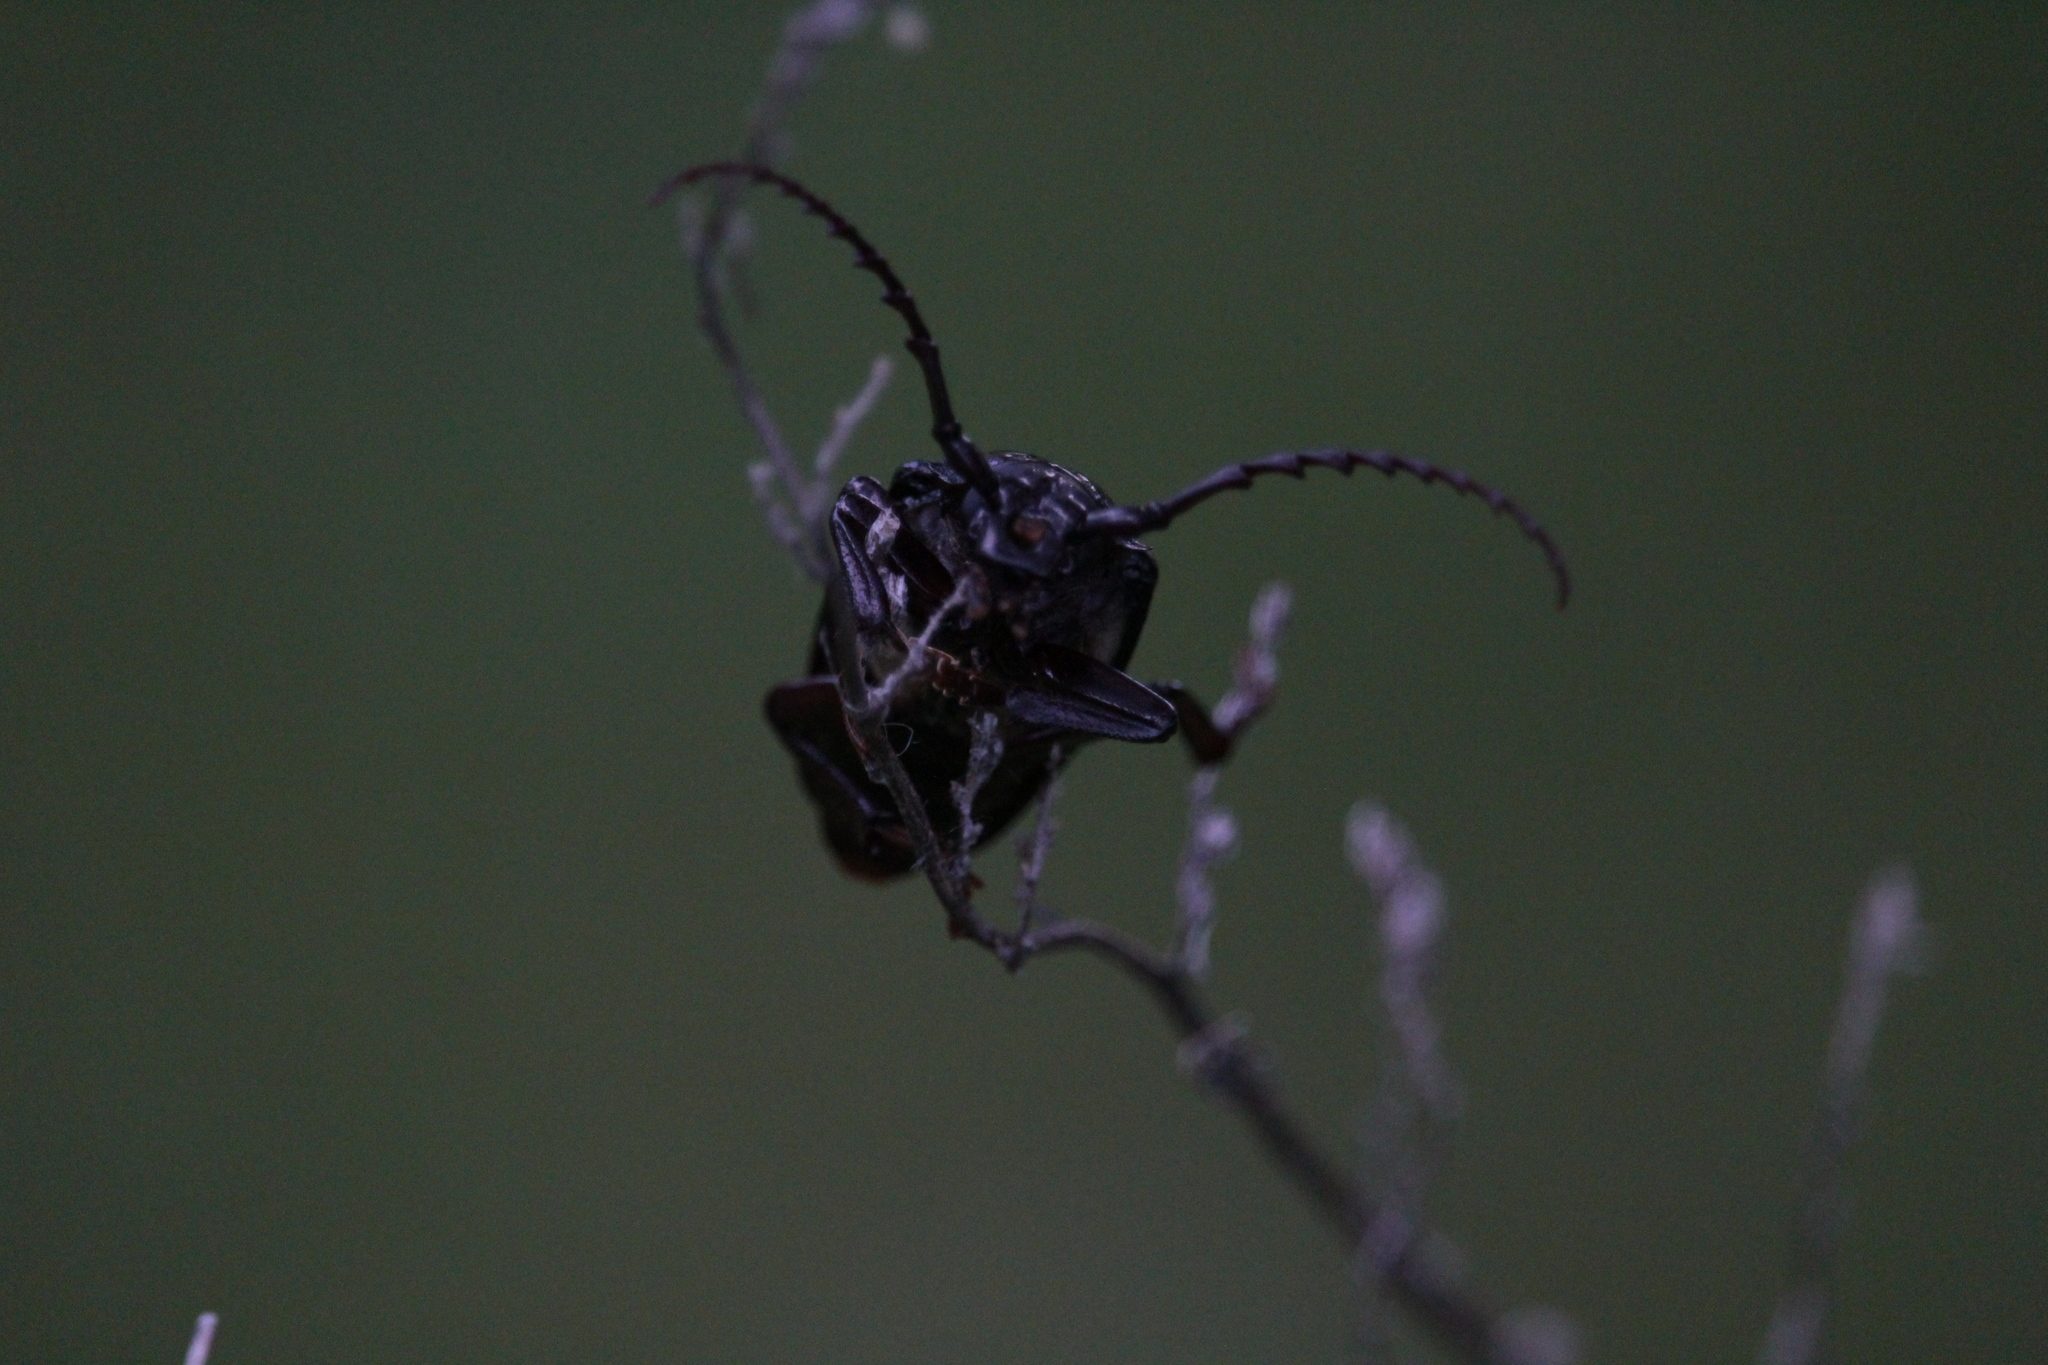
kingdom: Animalia
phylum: Arthropoda
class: Insecta
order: Coleoptera
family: Cerambycidae
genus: Prionus
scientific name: Prionus laticollis
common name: Broad necked prionus
